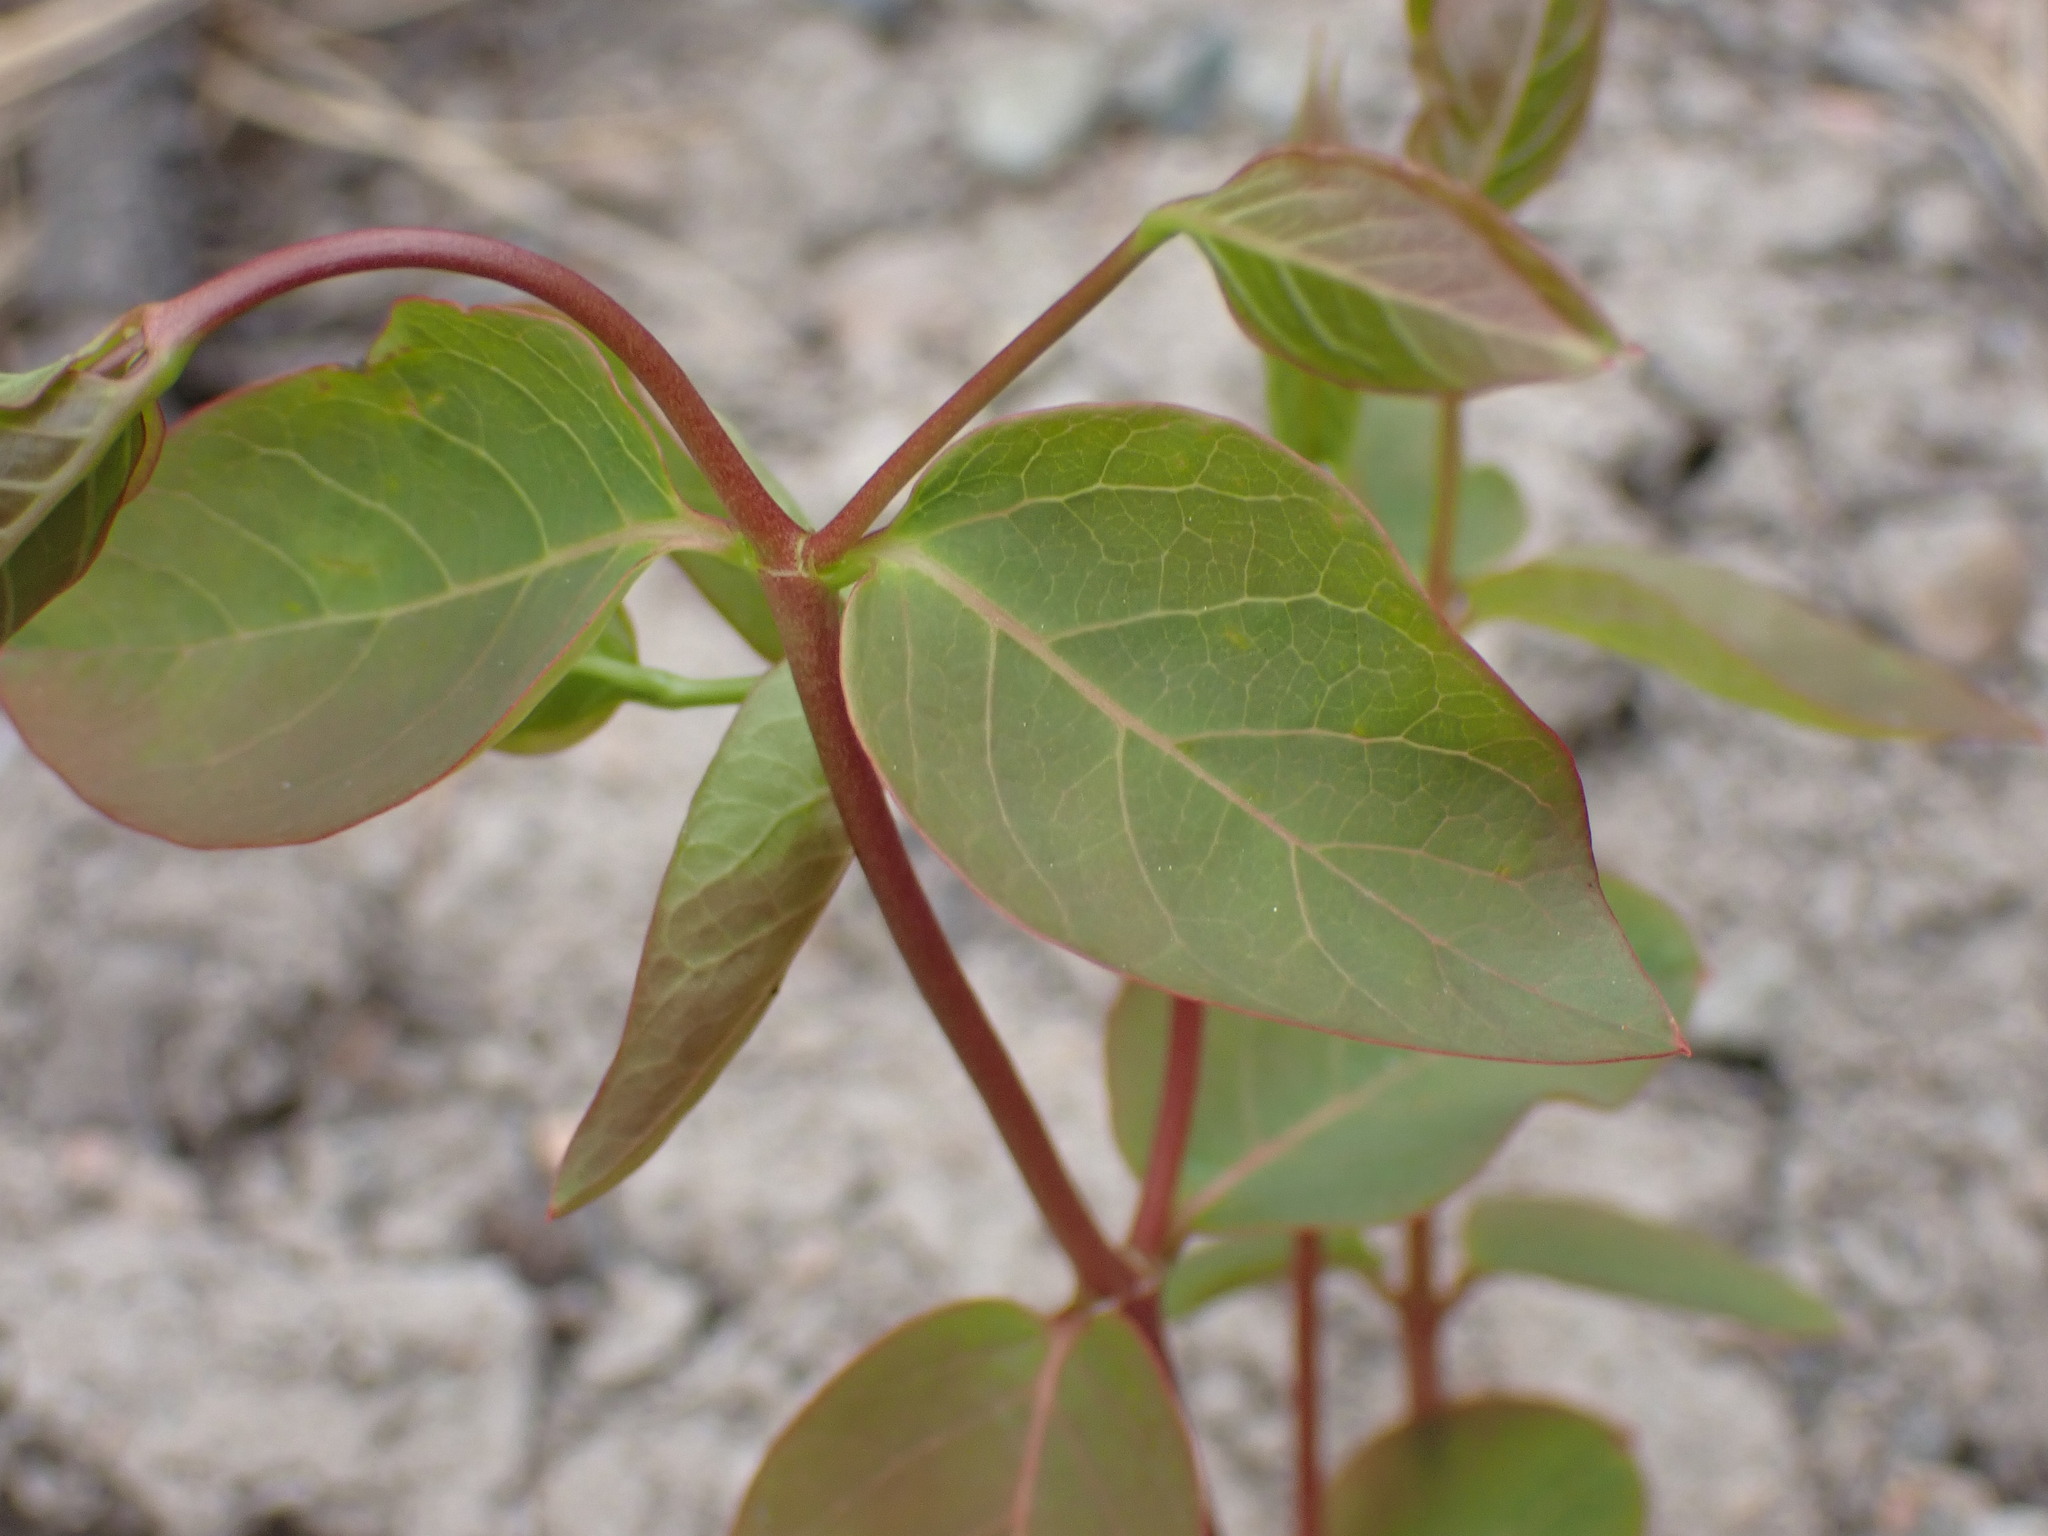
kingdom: Plantae
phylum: Tracheophyta
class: Magnoliopsida
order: Gentianales
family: Apocynaceae
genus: Apocynum
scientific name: Apocynum androsaemifolium
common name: Spreading dogbane
